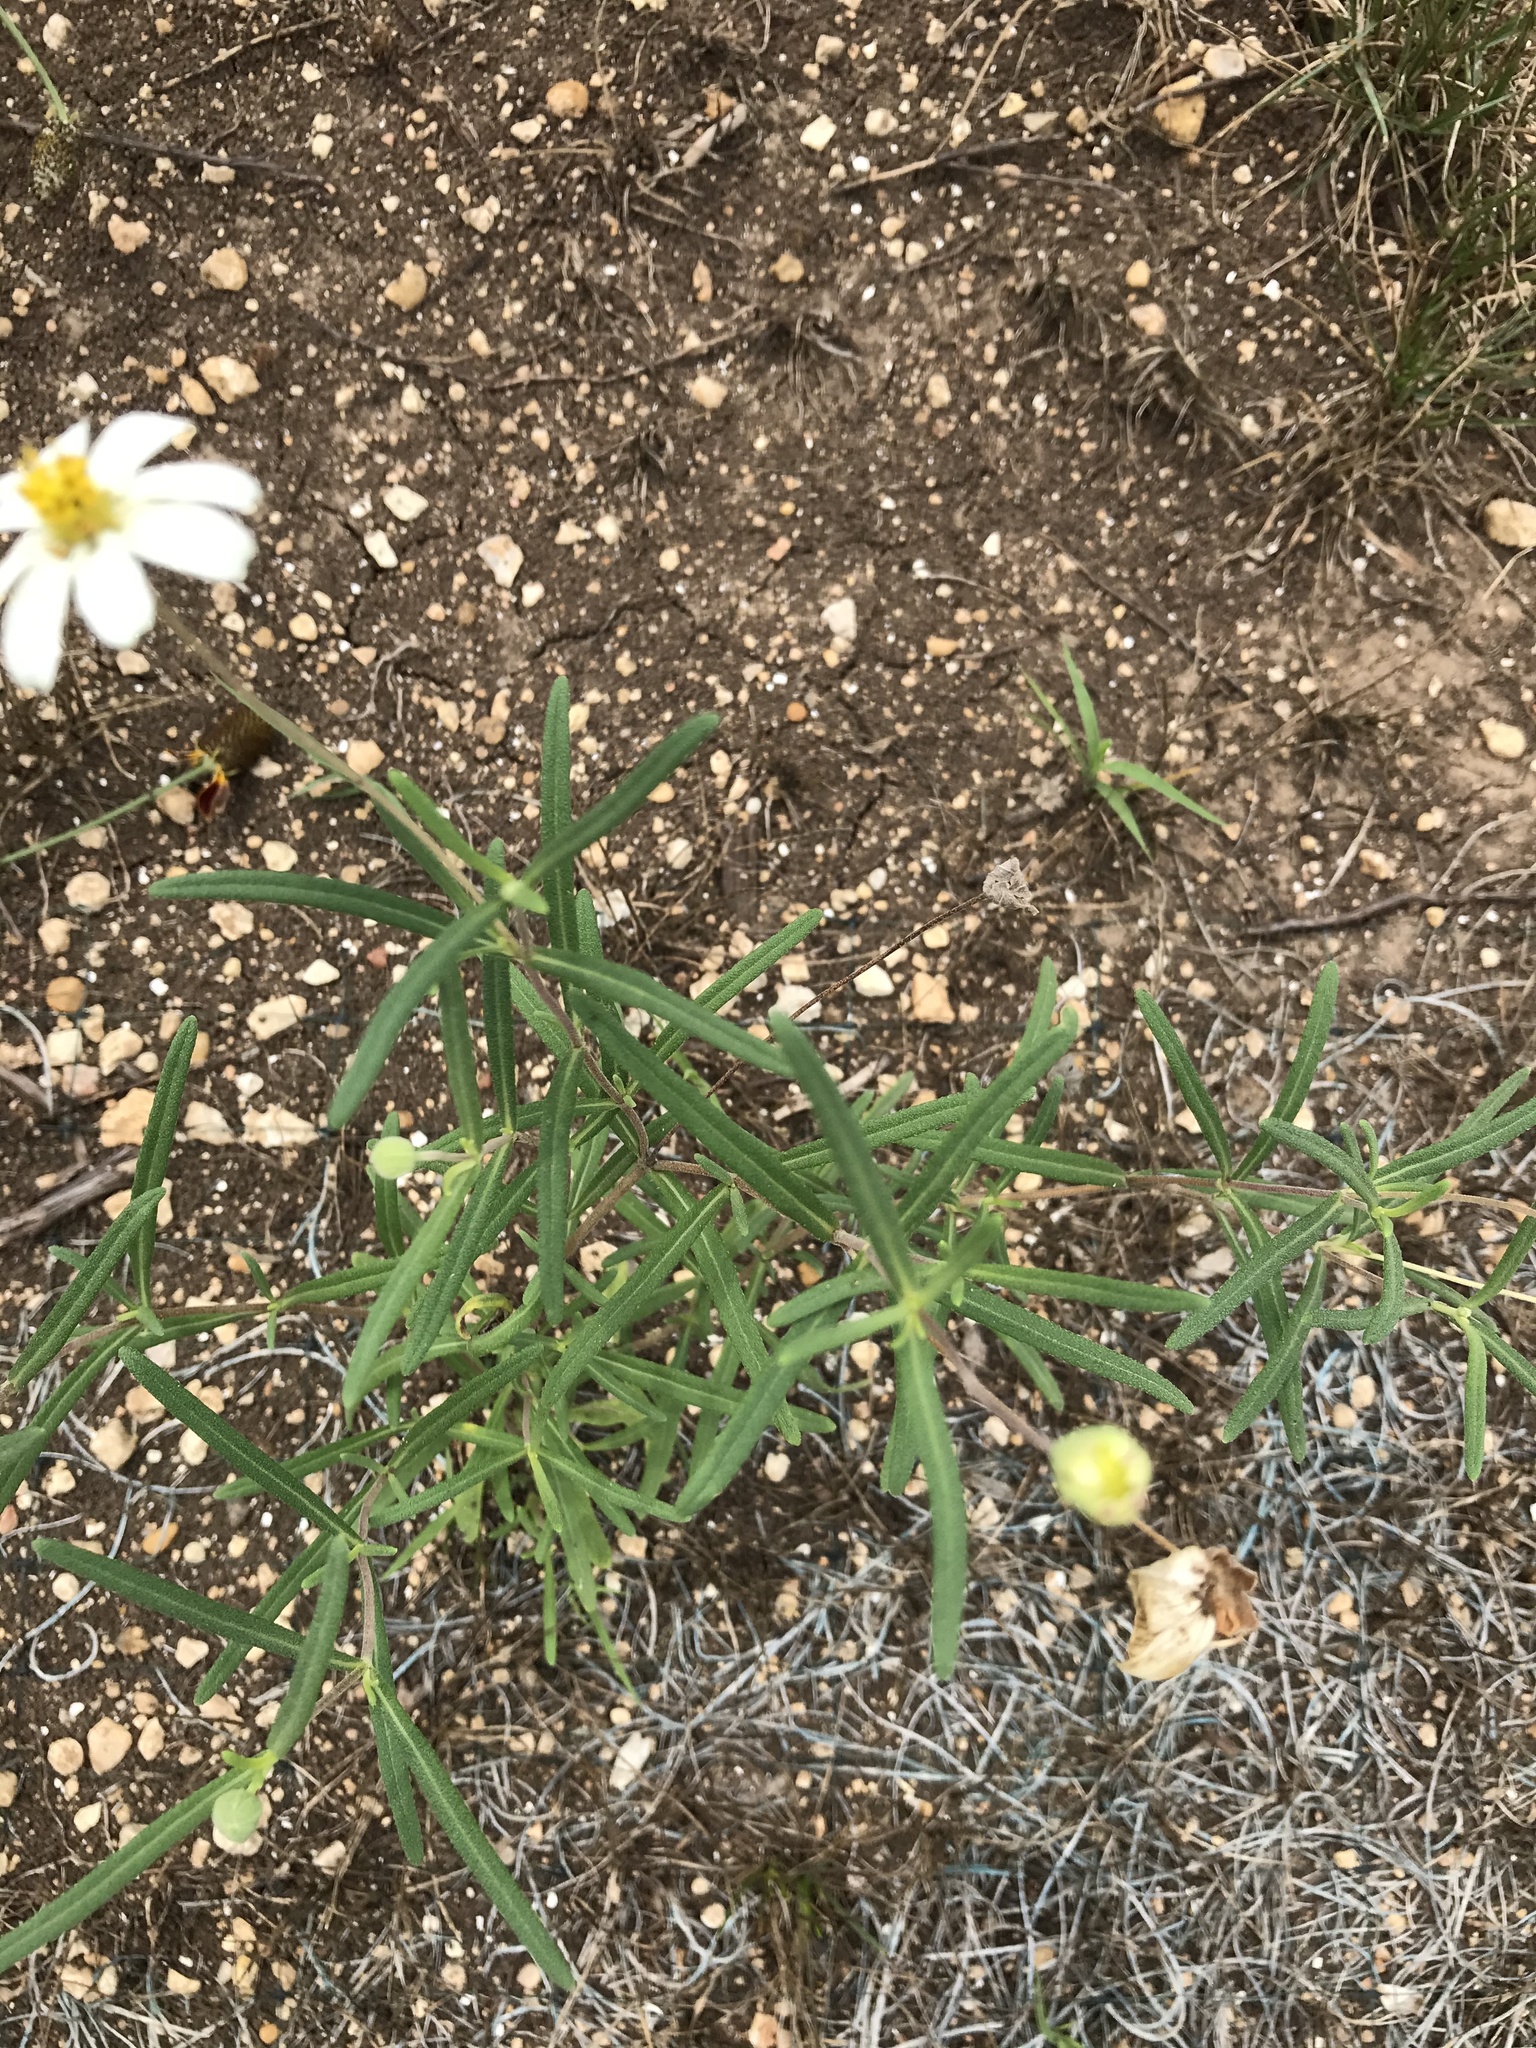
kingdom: Plantae
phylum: Tracheophyta
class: Magnoliopsida
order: Asterales
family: Asteraceae
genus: Melampodium
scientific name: Melampodium leucanthum
